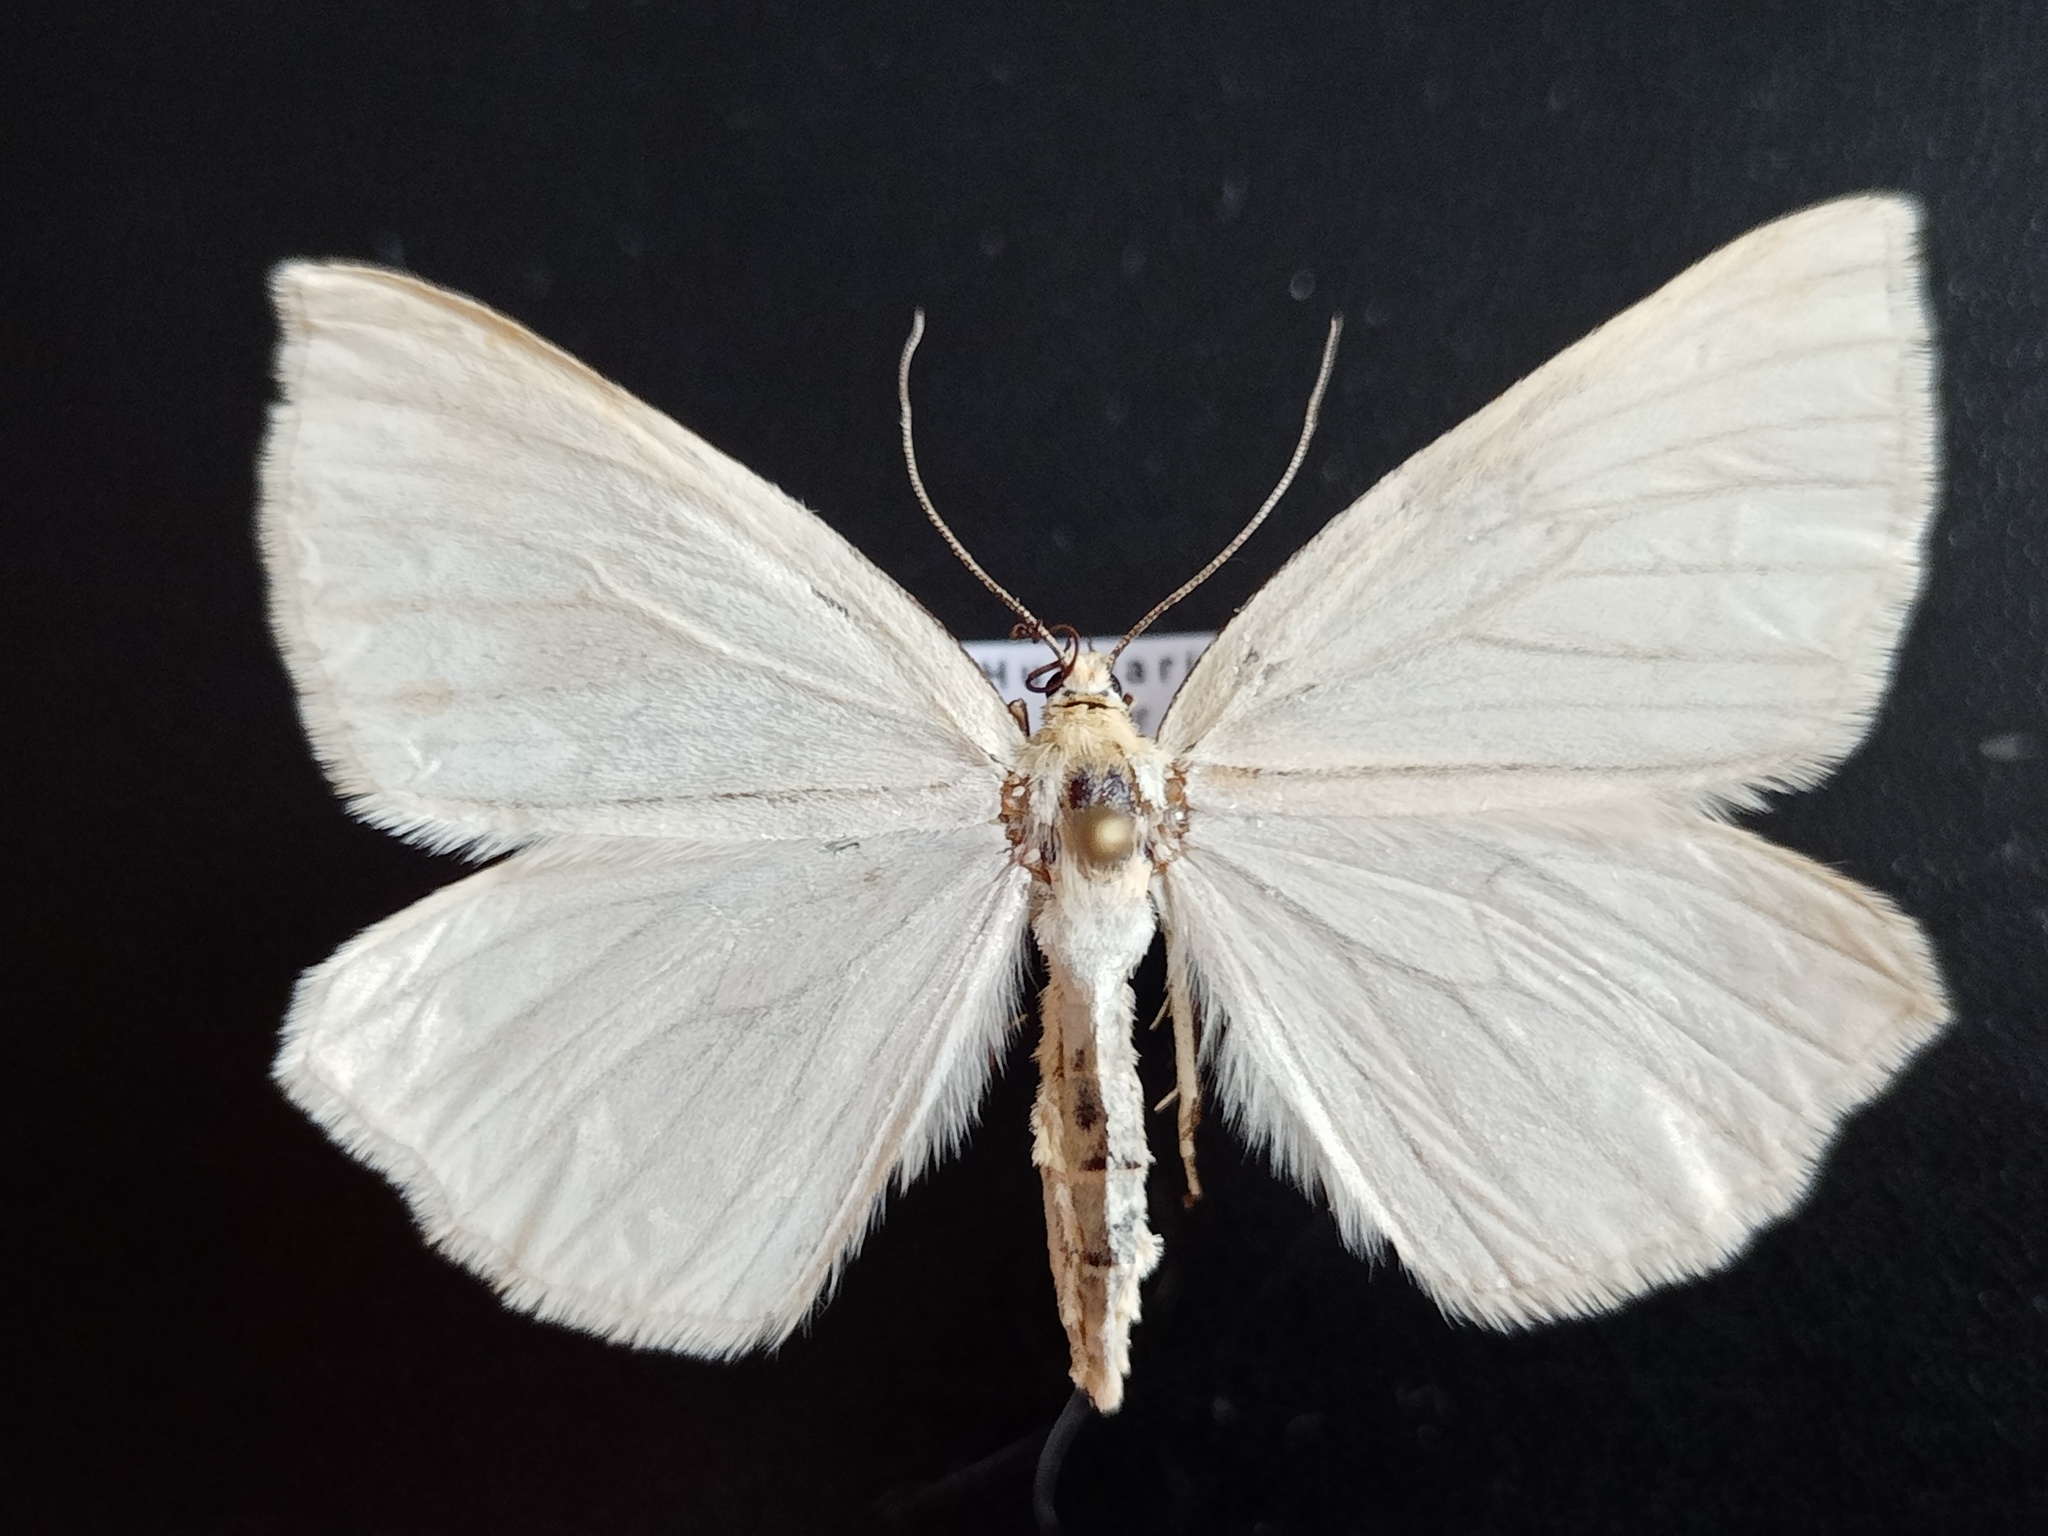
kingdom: Animalia
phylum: Arthropoda
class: Insecta
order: Lepidoptera
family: Geometridae
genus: Siona
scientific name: Siona lineata
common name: Black-veined moth
